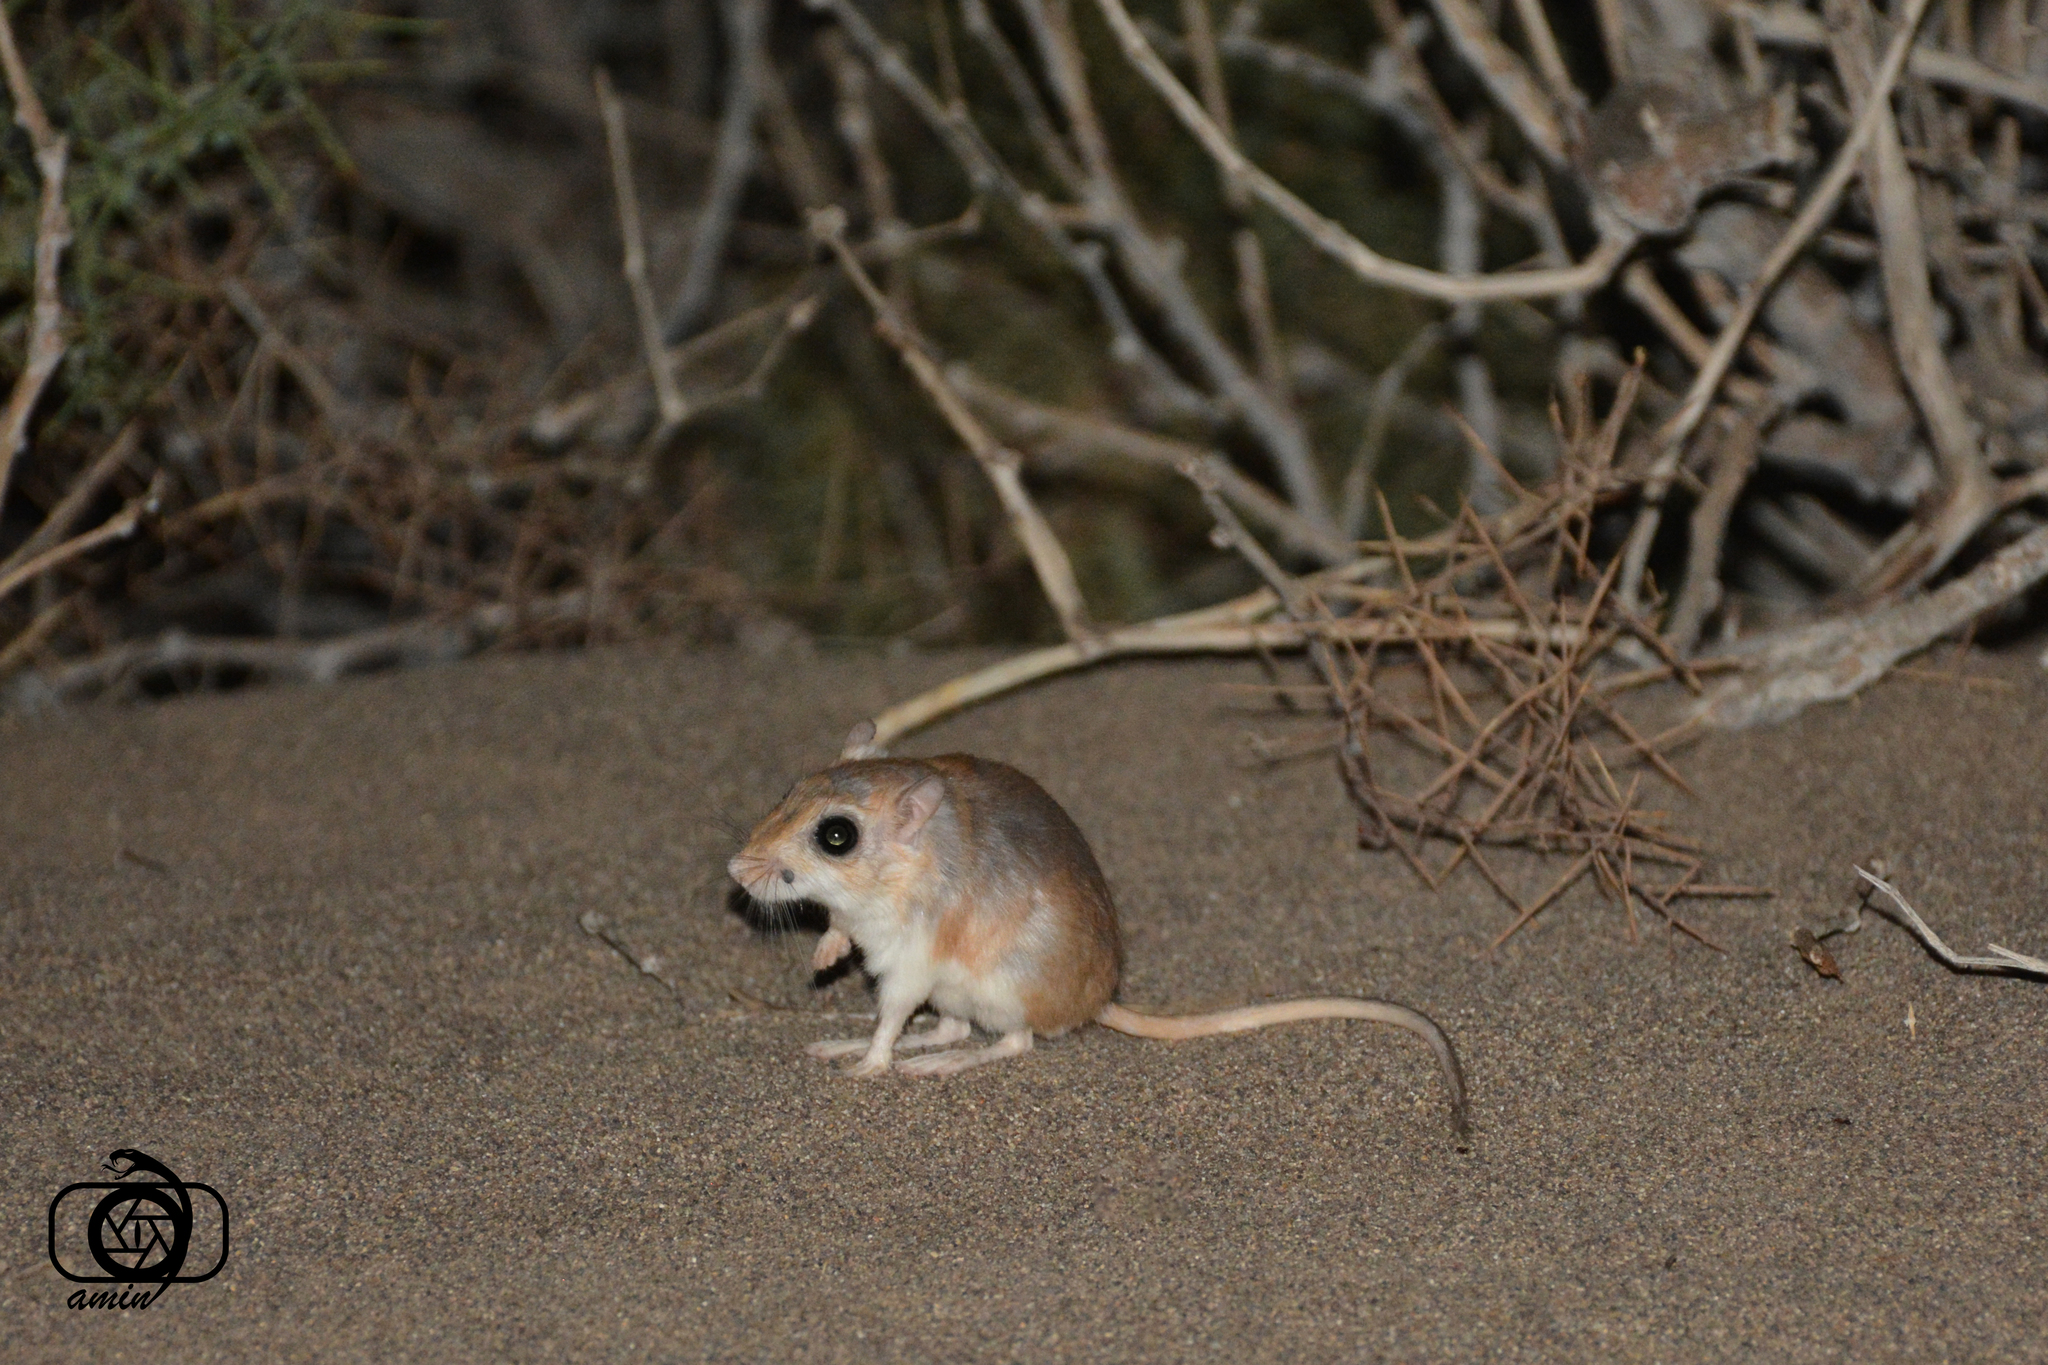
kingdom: Animalia
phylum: Chordata
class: Mammalia
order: Rodentia
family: Muridae
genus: Gerbillus
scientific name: Gerbillus cheesmani
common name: Cheesman's gerbil
